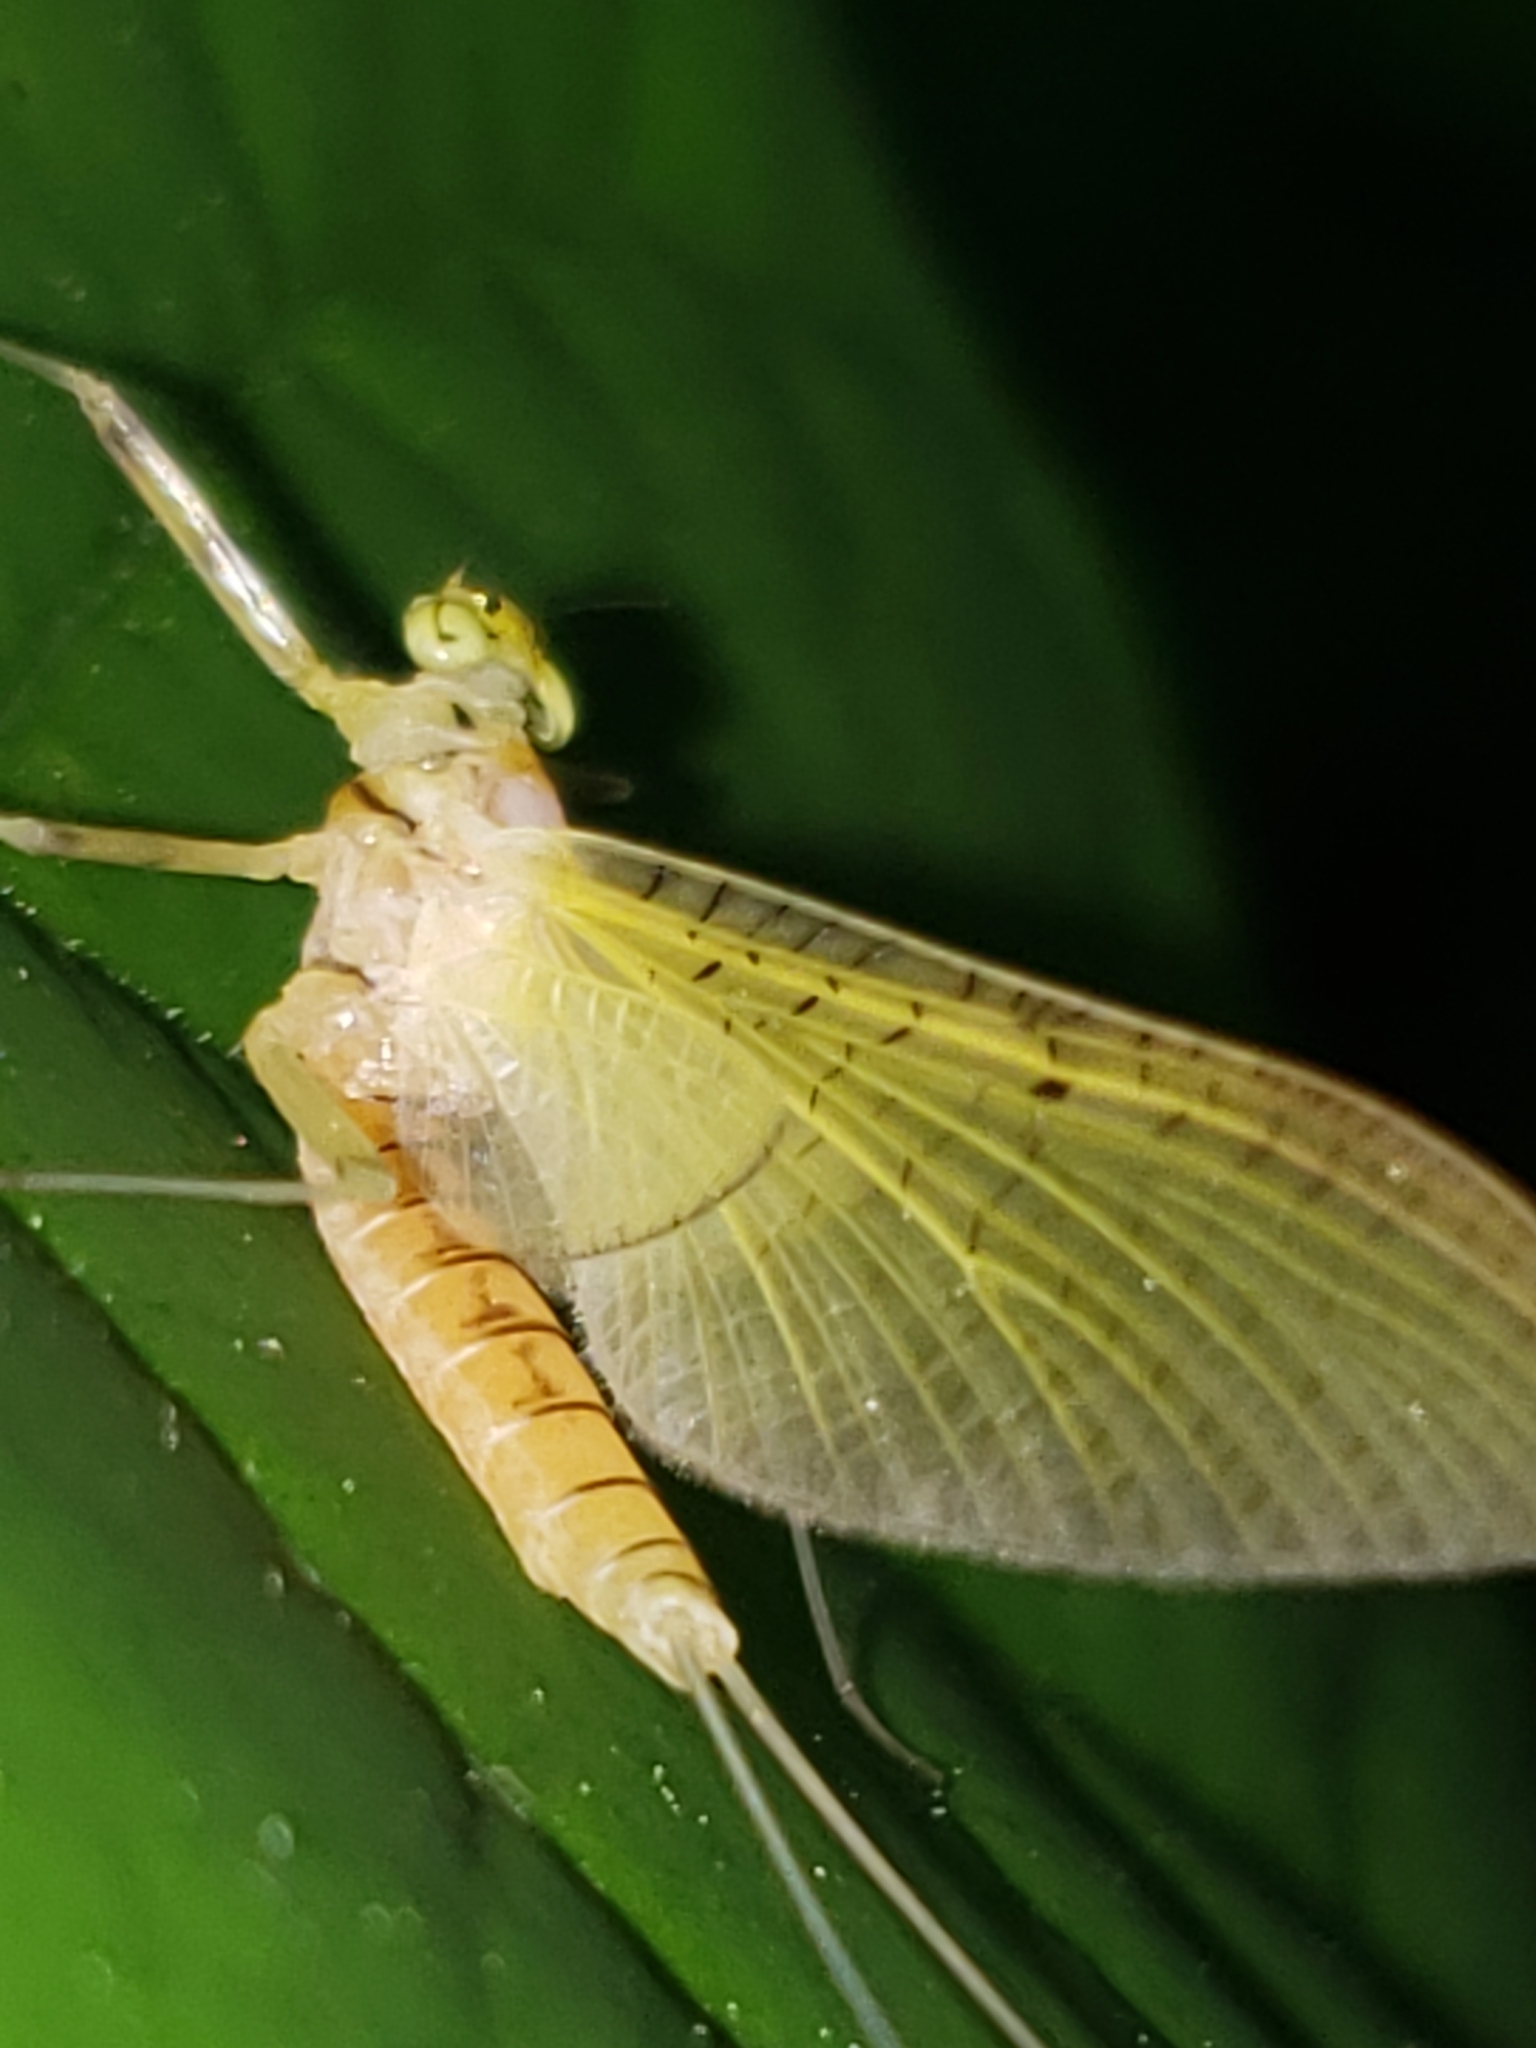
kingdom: Animalia
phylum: Arthropoda
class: Insecta
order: Ephemeroptera
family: Heptageniidae
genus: Stenacron
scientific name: Stenacron interpunctatum
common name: Orange cahill
